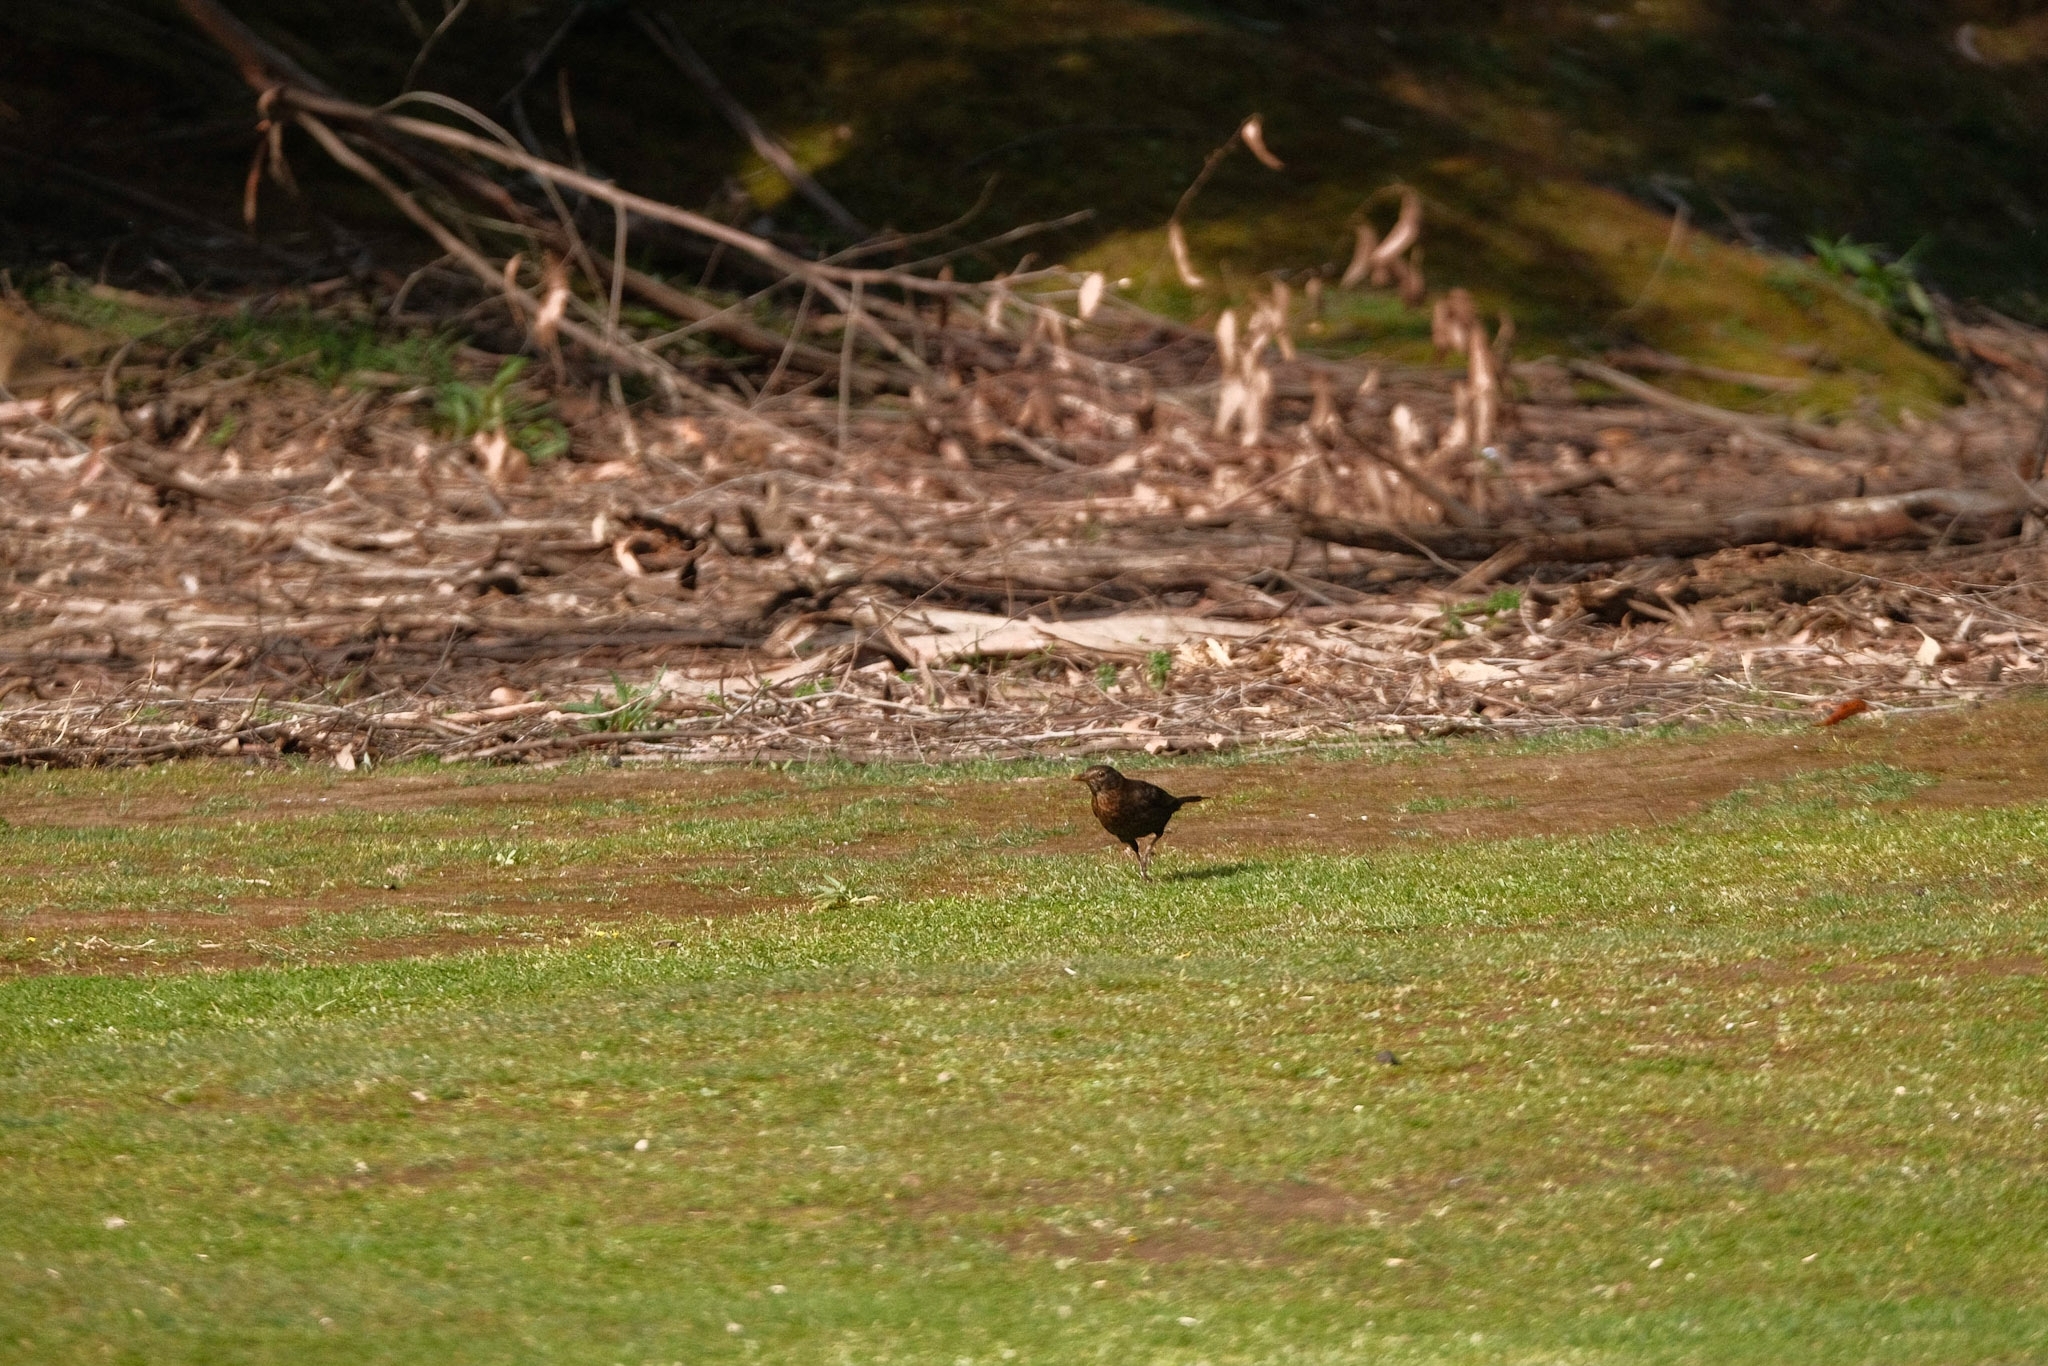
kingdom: Animalia
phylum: Chordata
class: Aves
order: Passeriformes
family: Turdidae
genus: Turdus
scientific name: Turdus merula
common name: Common blackbird
